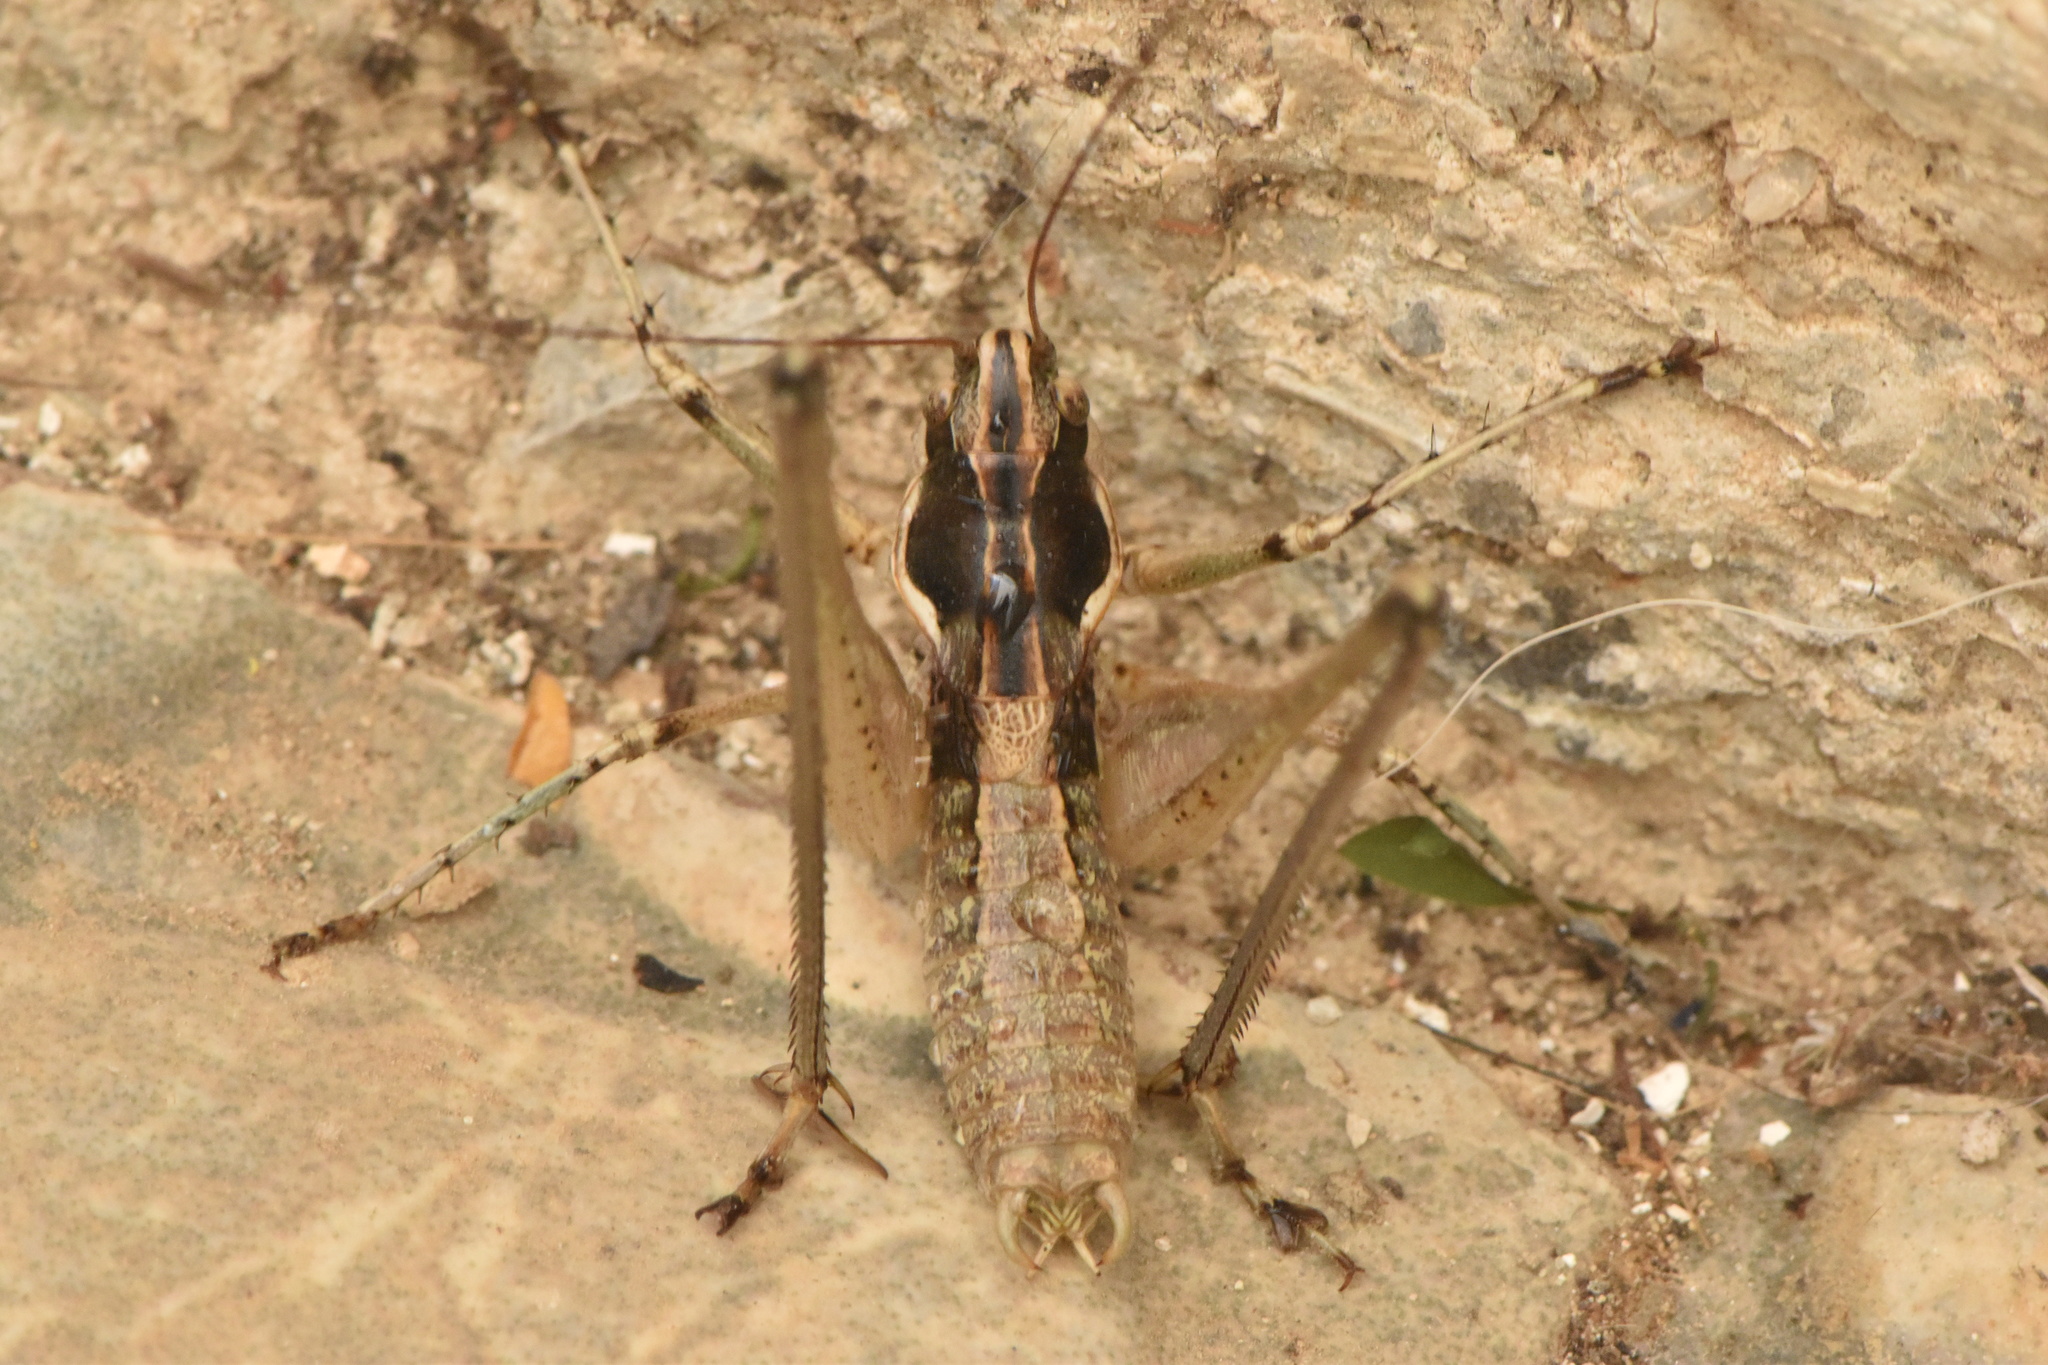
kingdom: Animalia
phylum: Arthropoda
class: Insecta
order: Orthoptera
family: Tettigoniidae
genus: Pterolepis
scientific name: Pterolepis spoliata
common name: Disarmed bush-cricket
